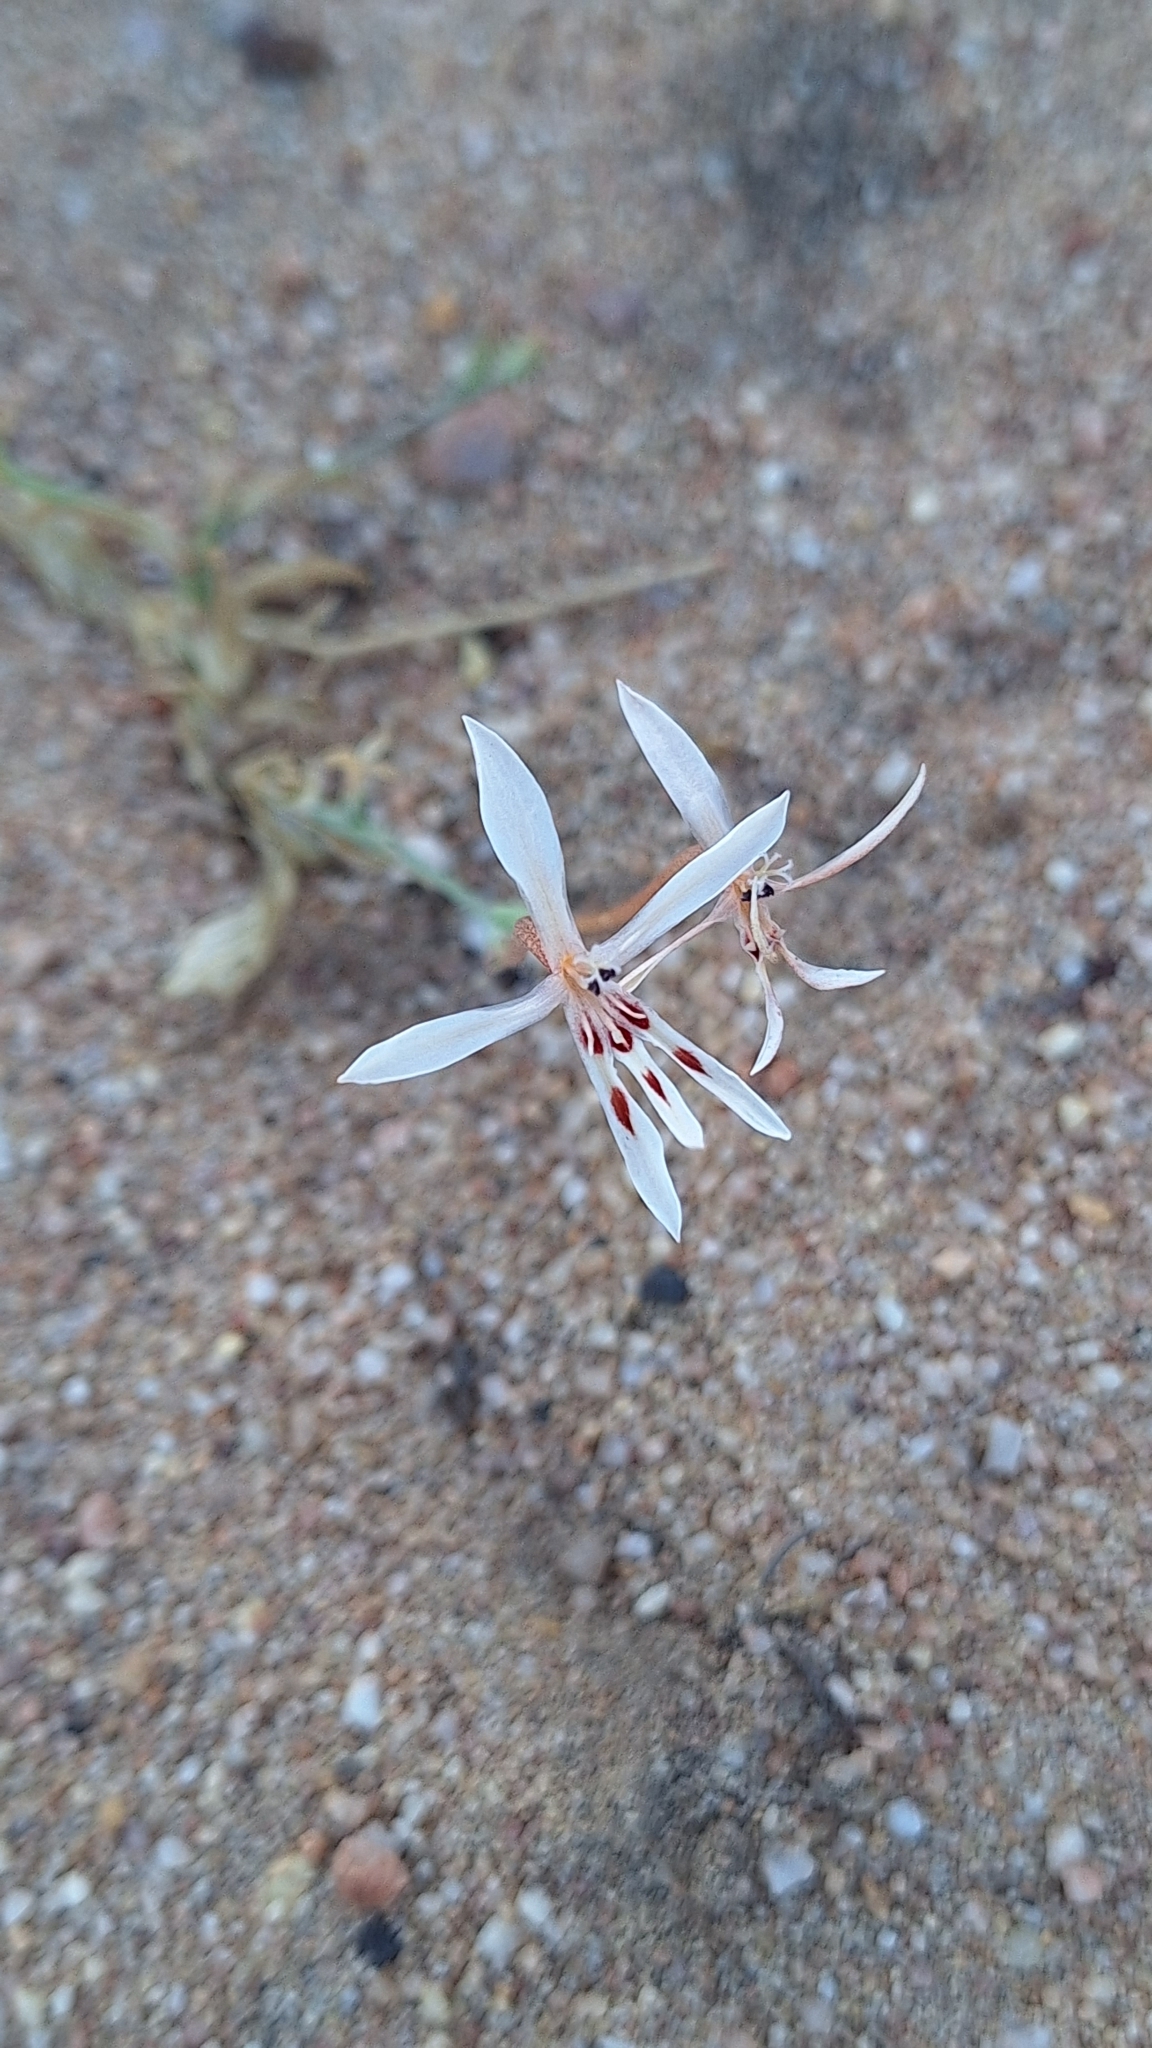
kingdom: Plantae
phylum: Tracheophyta
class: Liliopsida
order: Asparagales
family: Iridaceae
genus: Lapeirousia
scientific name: Lapeirousia anceps
